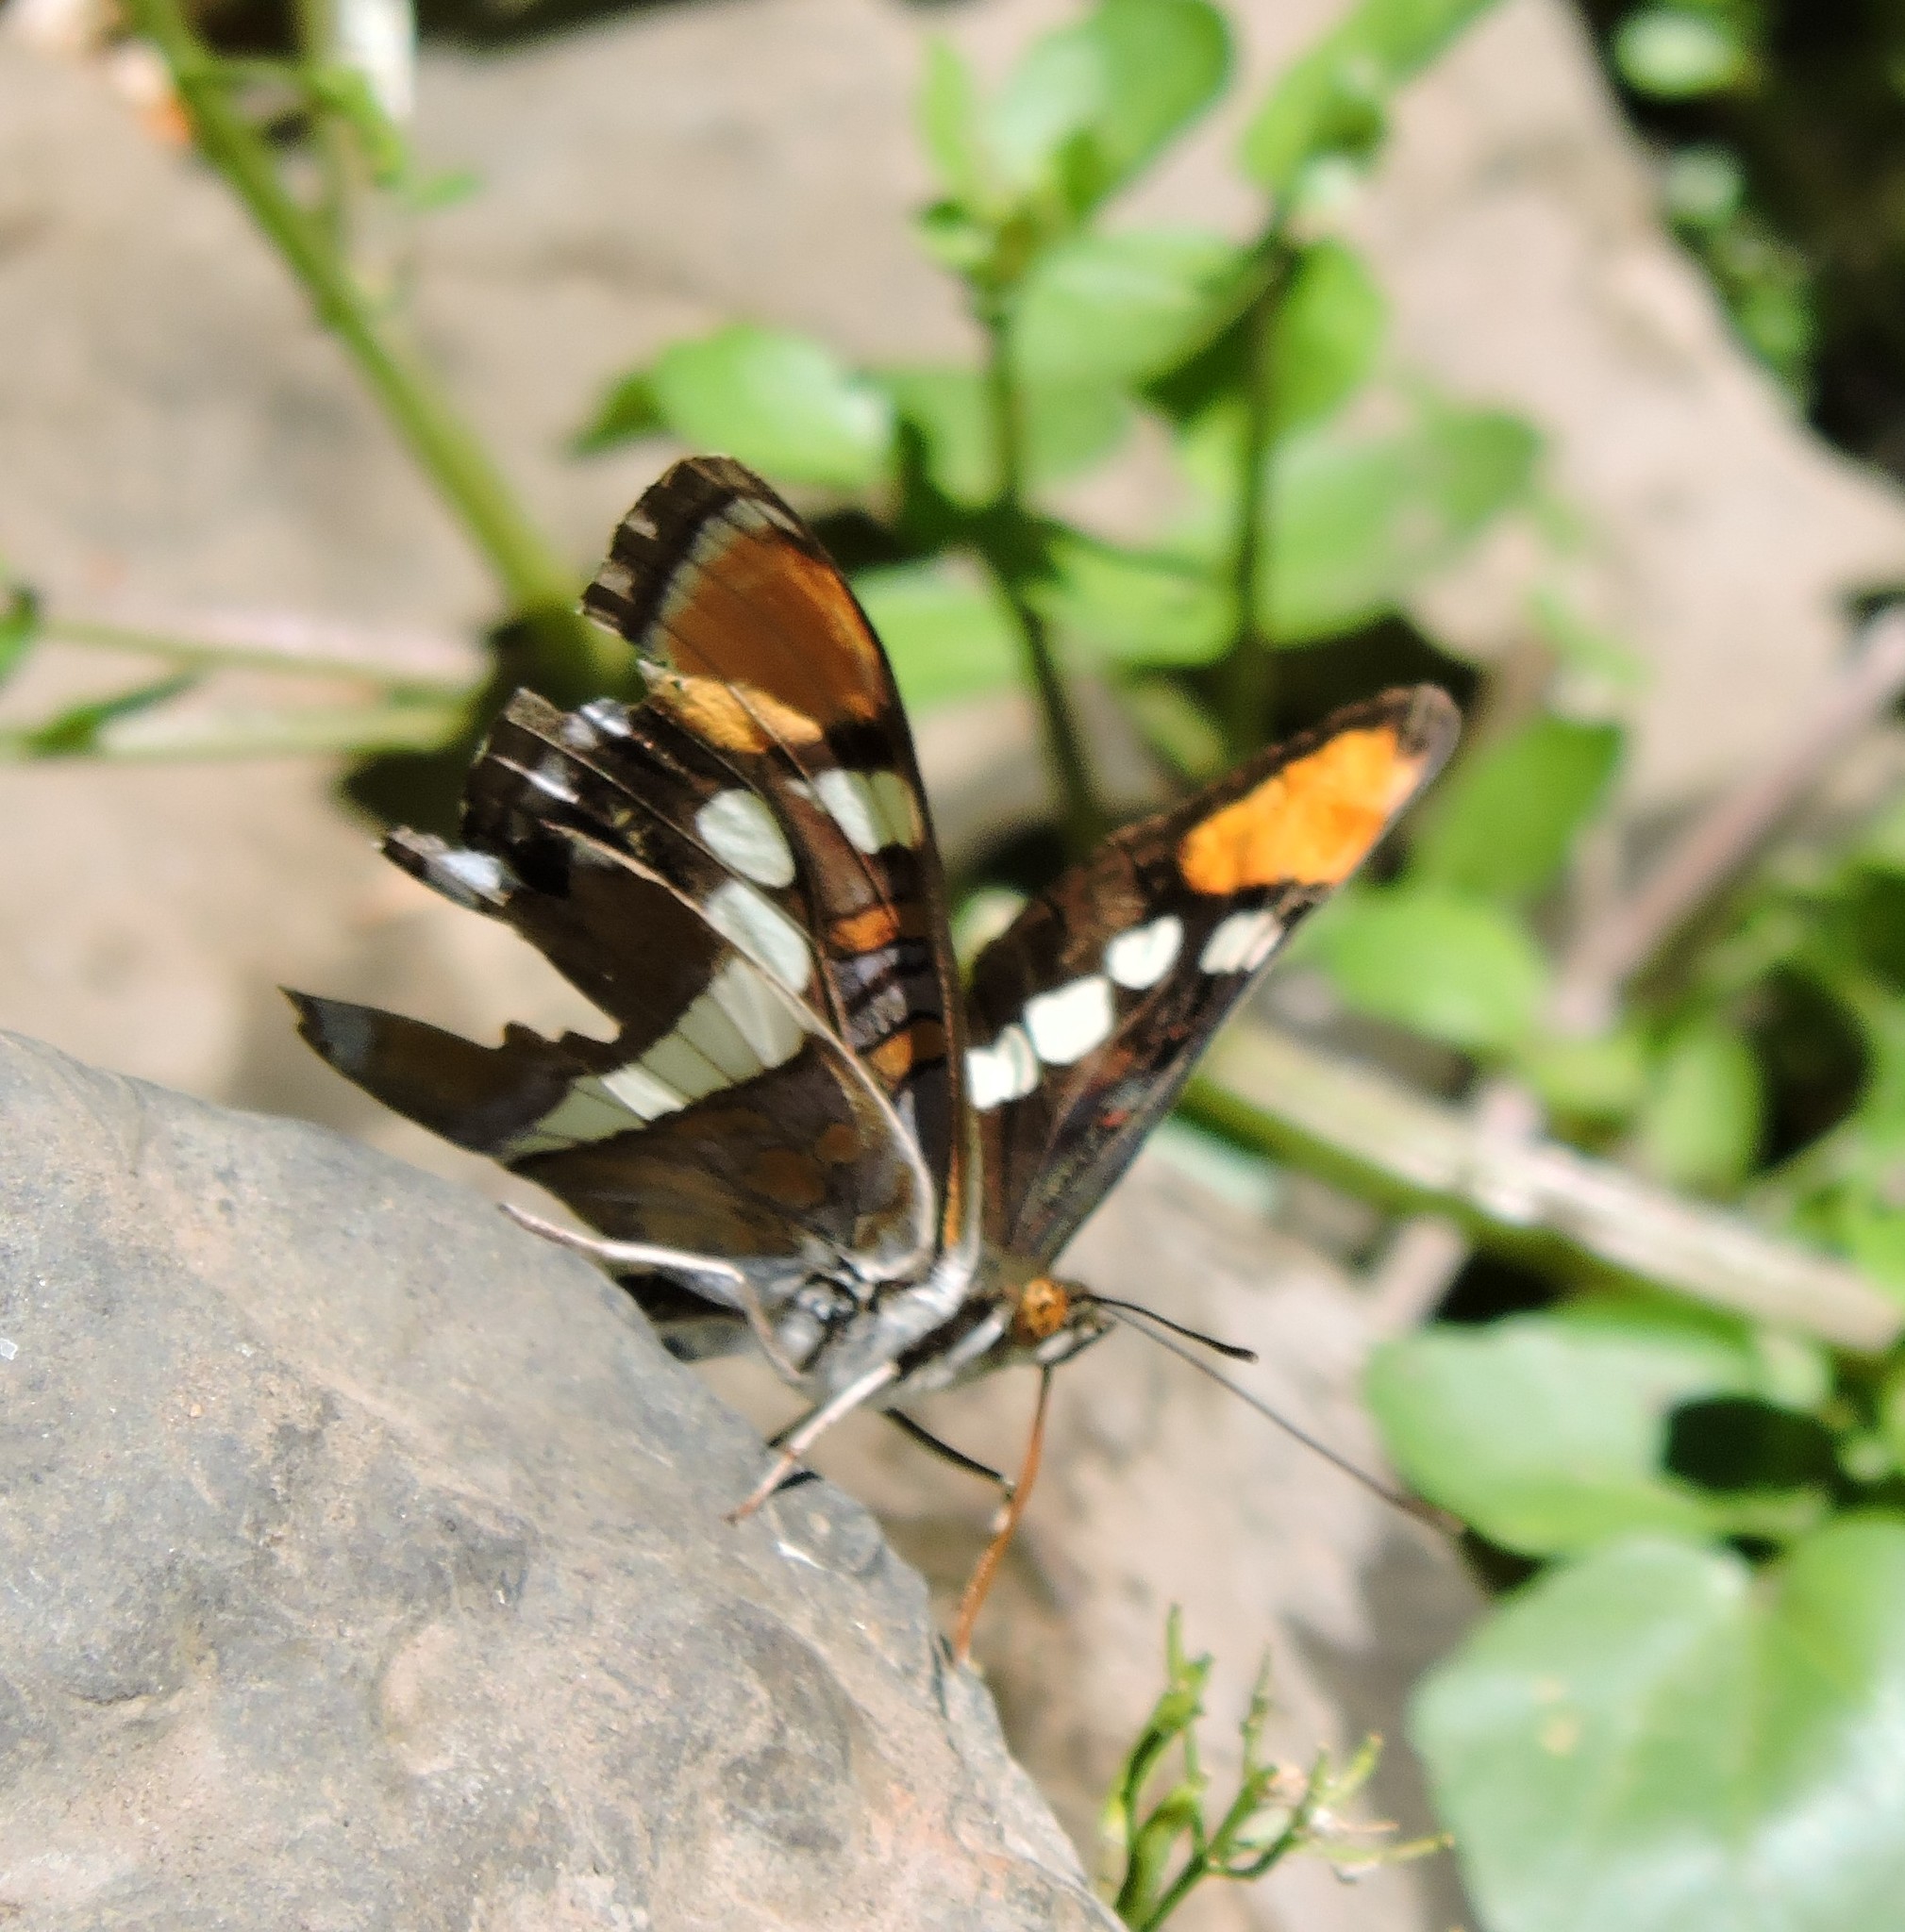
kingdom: Animalia
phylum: Arthropoda
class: Insecta
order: Lepidoptera
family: Nymphalidae
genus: Limenitis
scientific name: Limenitis bredowii
